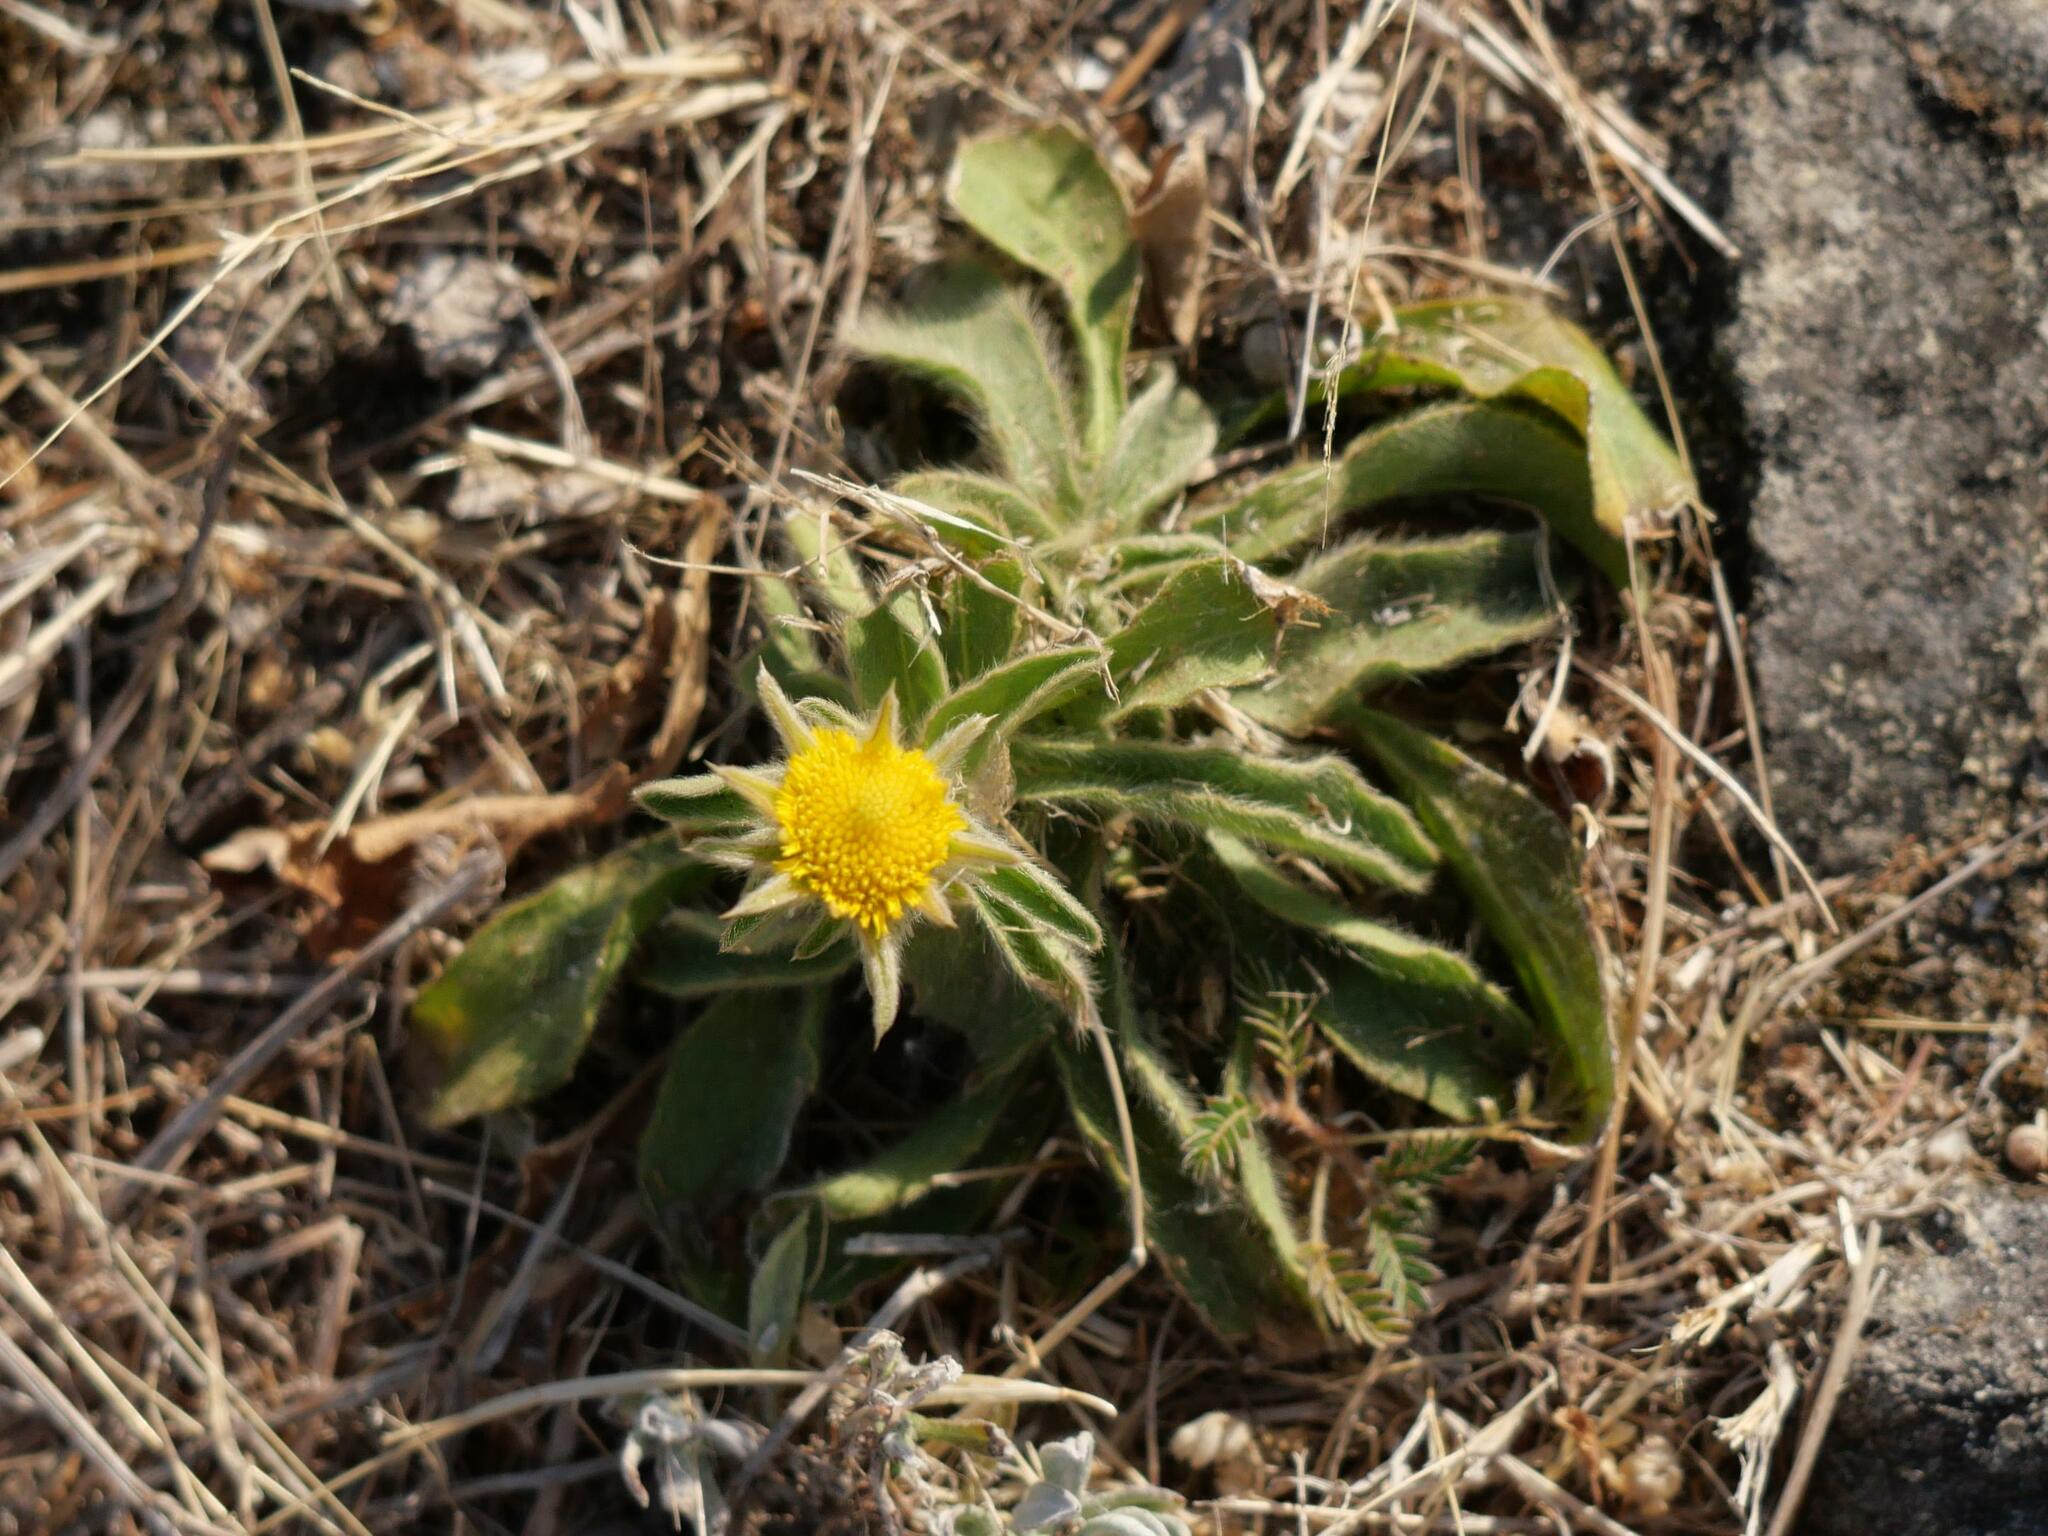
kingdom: Plantae
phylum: Tracheophyta
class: Magnoliopsida
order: Asterales
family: Asteraceae
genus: Pallenis
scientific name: Pallenis spinosa
